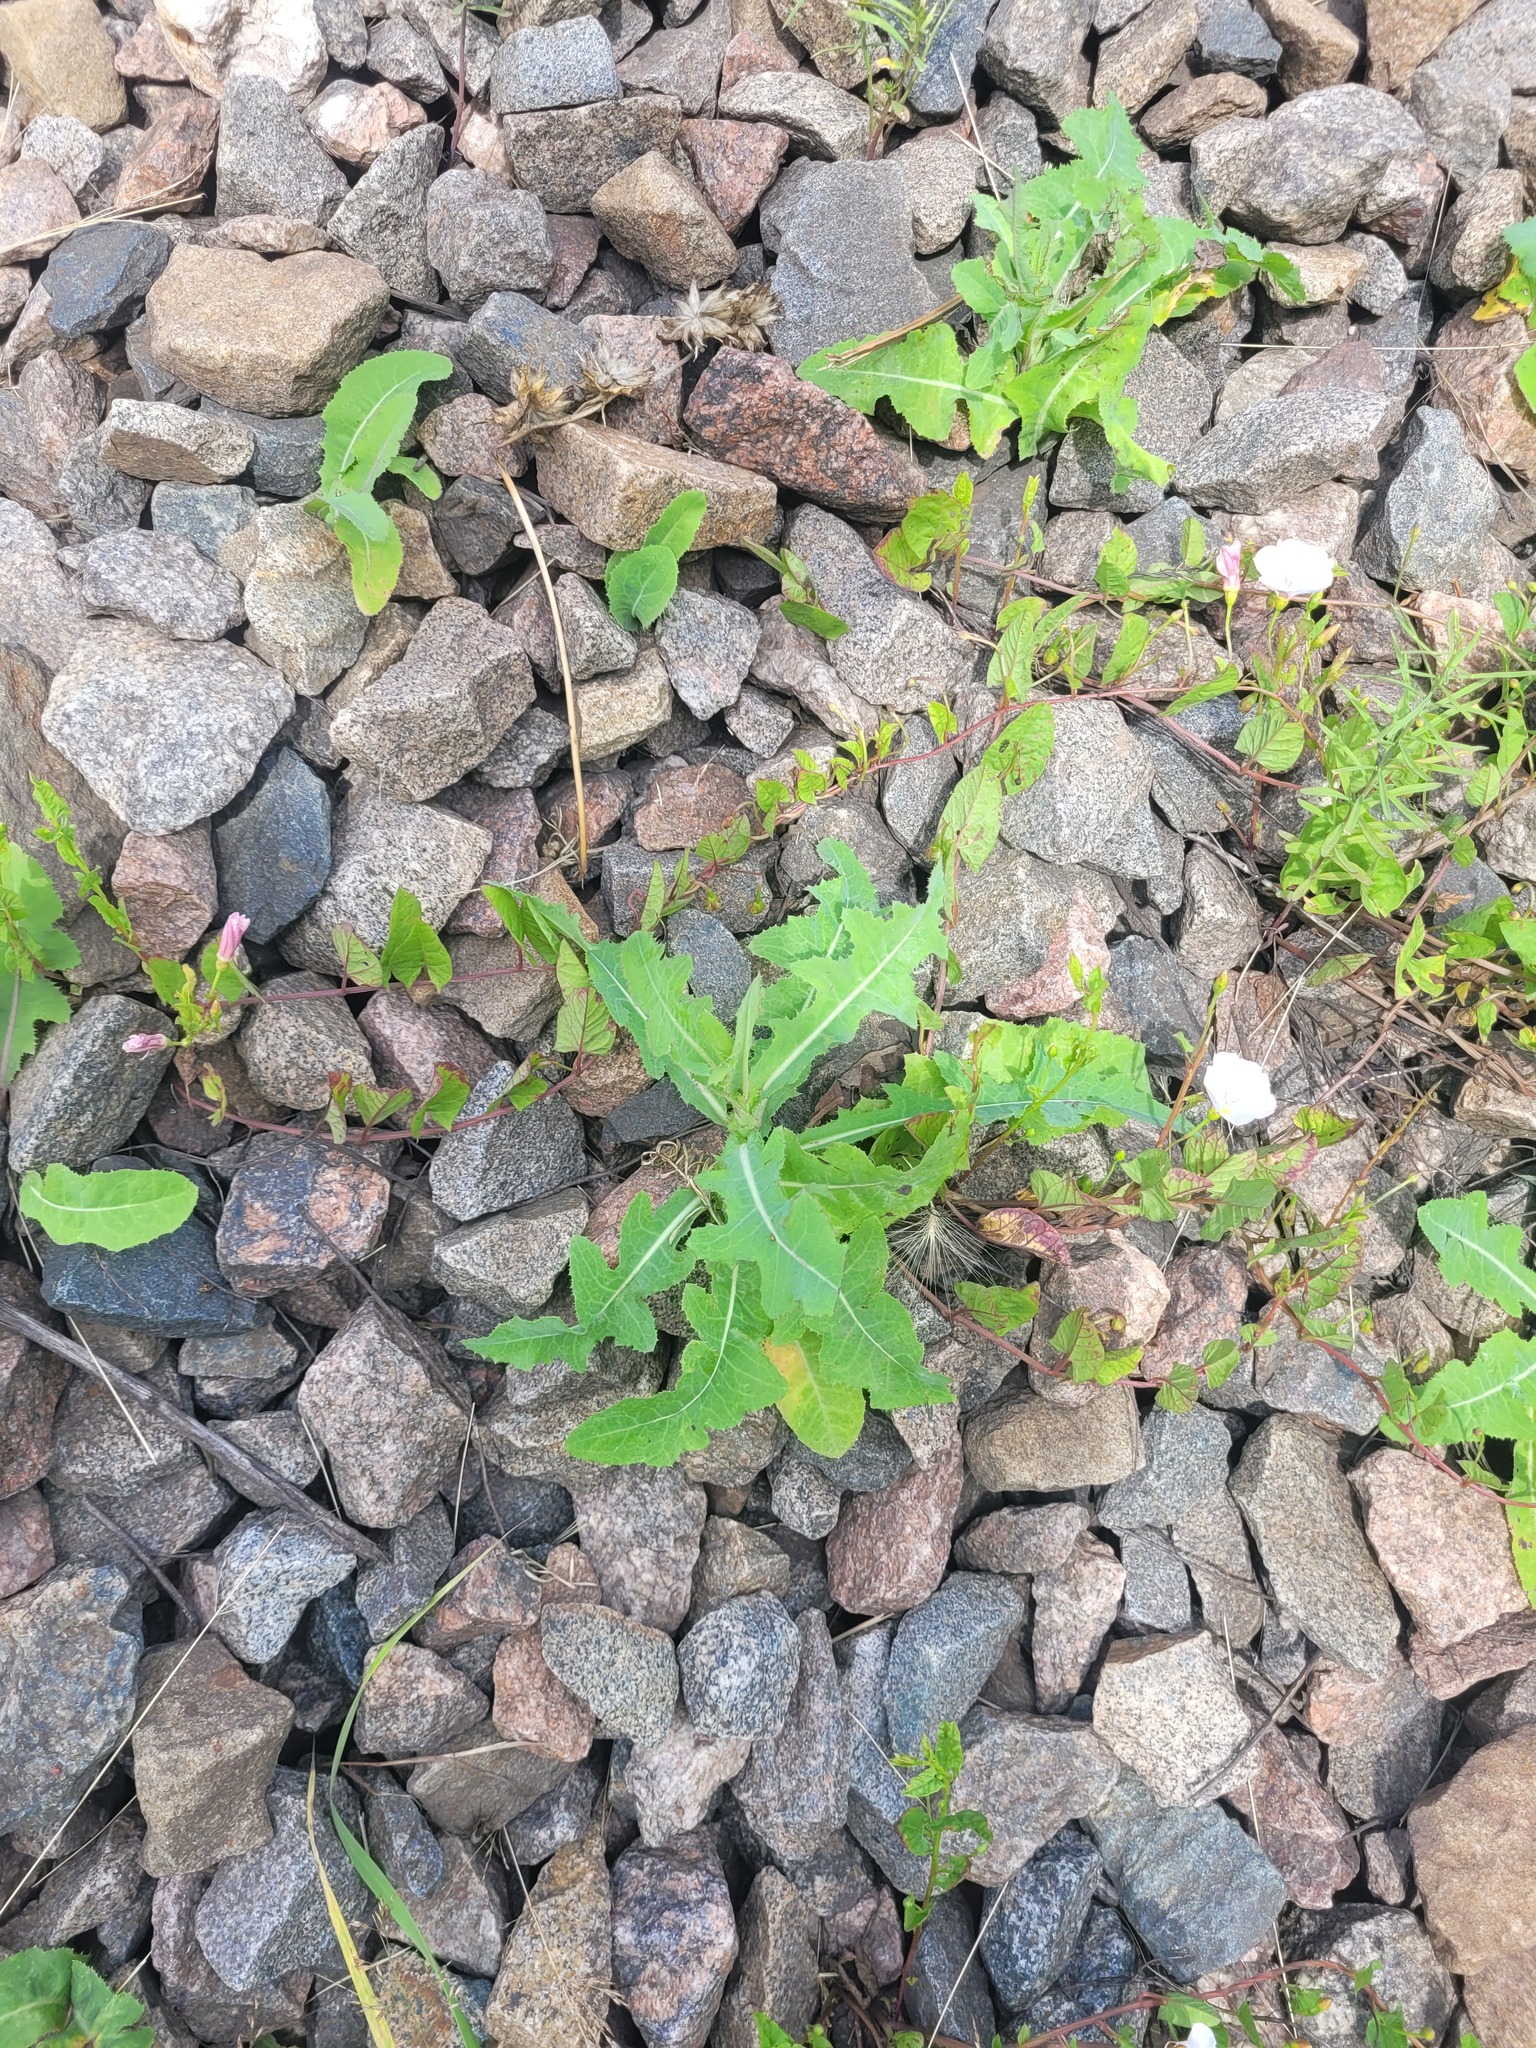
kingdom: Plantae
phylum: Tracheophyta
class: Magnoliopsida
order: Asterales
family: Asteraceae
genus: Sonchus
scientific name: Sonchus arvensis
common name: Perennial sow-thistle
